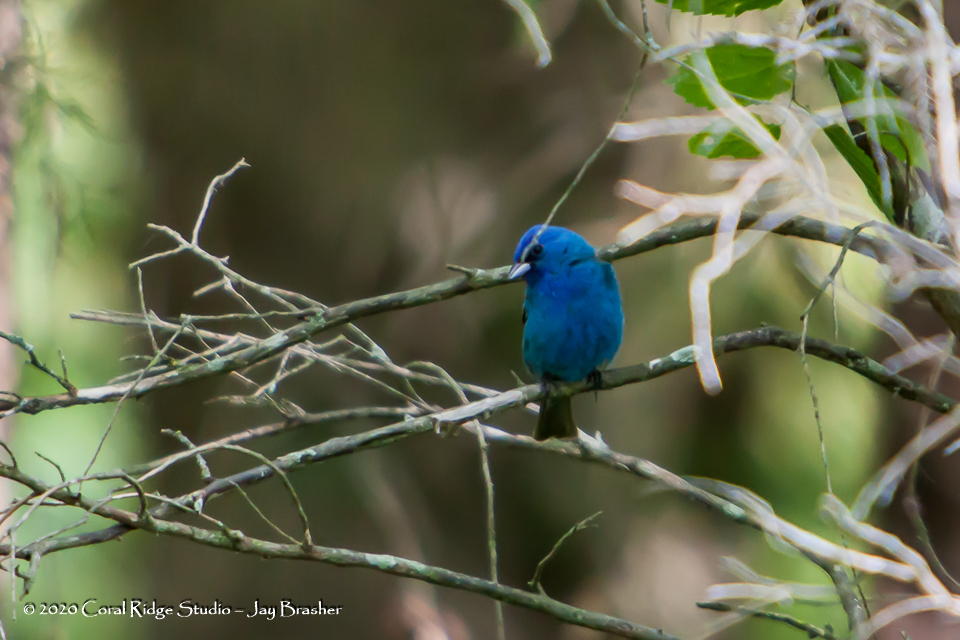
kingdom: Animalia
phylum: Chordata
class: Aves
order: Passeriformes
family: Cardinalidae
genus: Passerina
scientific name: Passerina cyanea
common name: Indigo bunting
